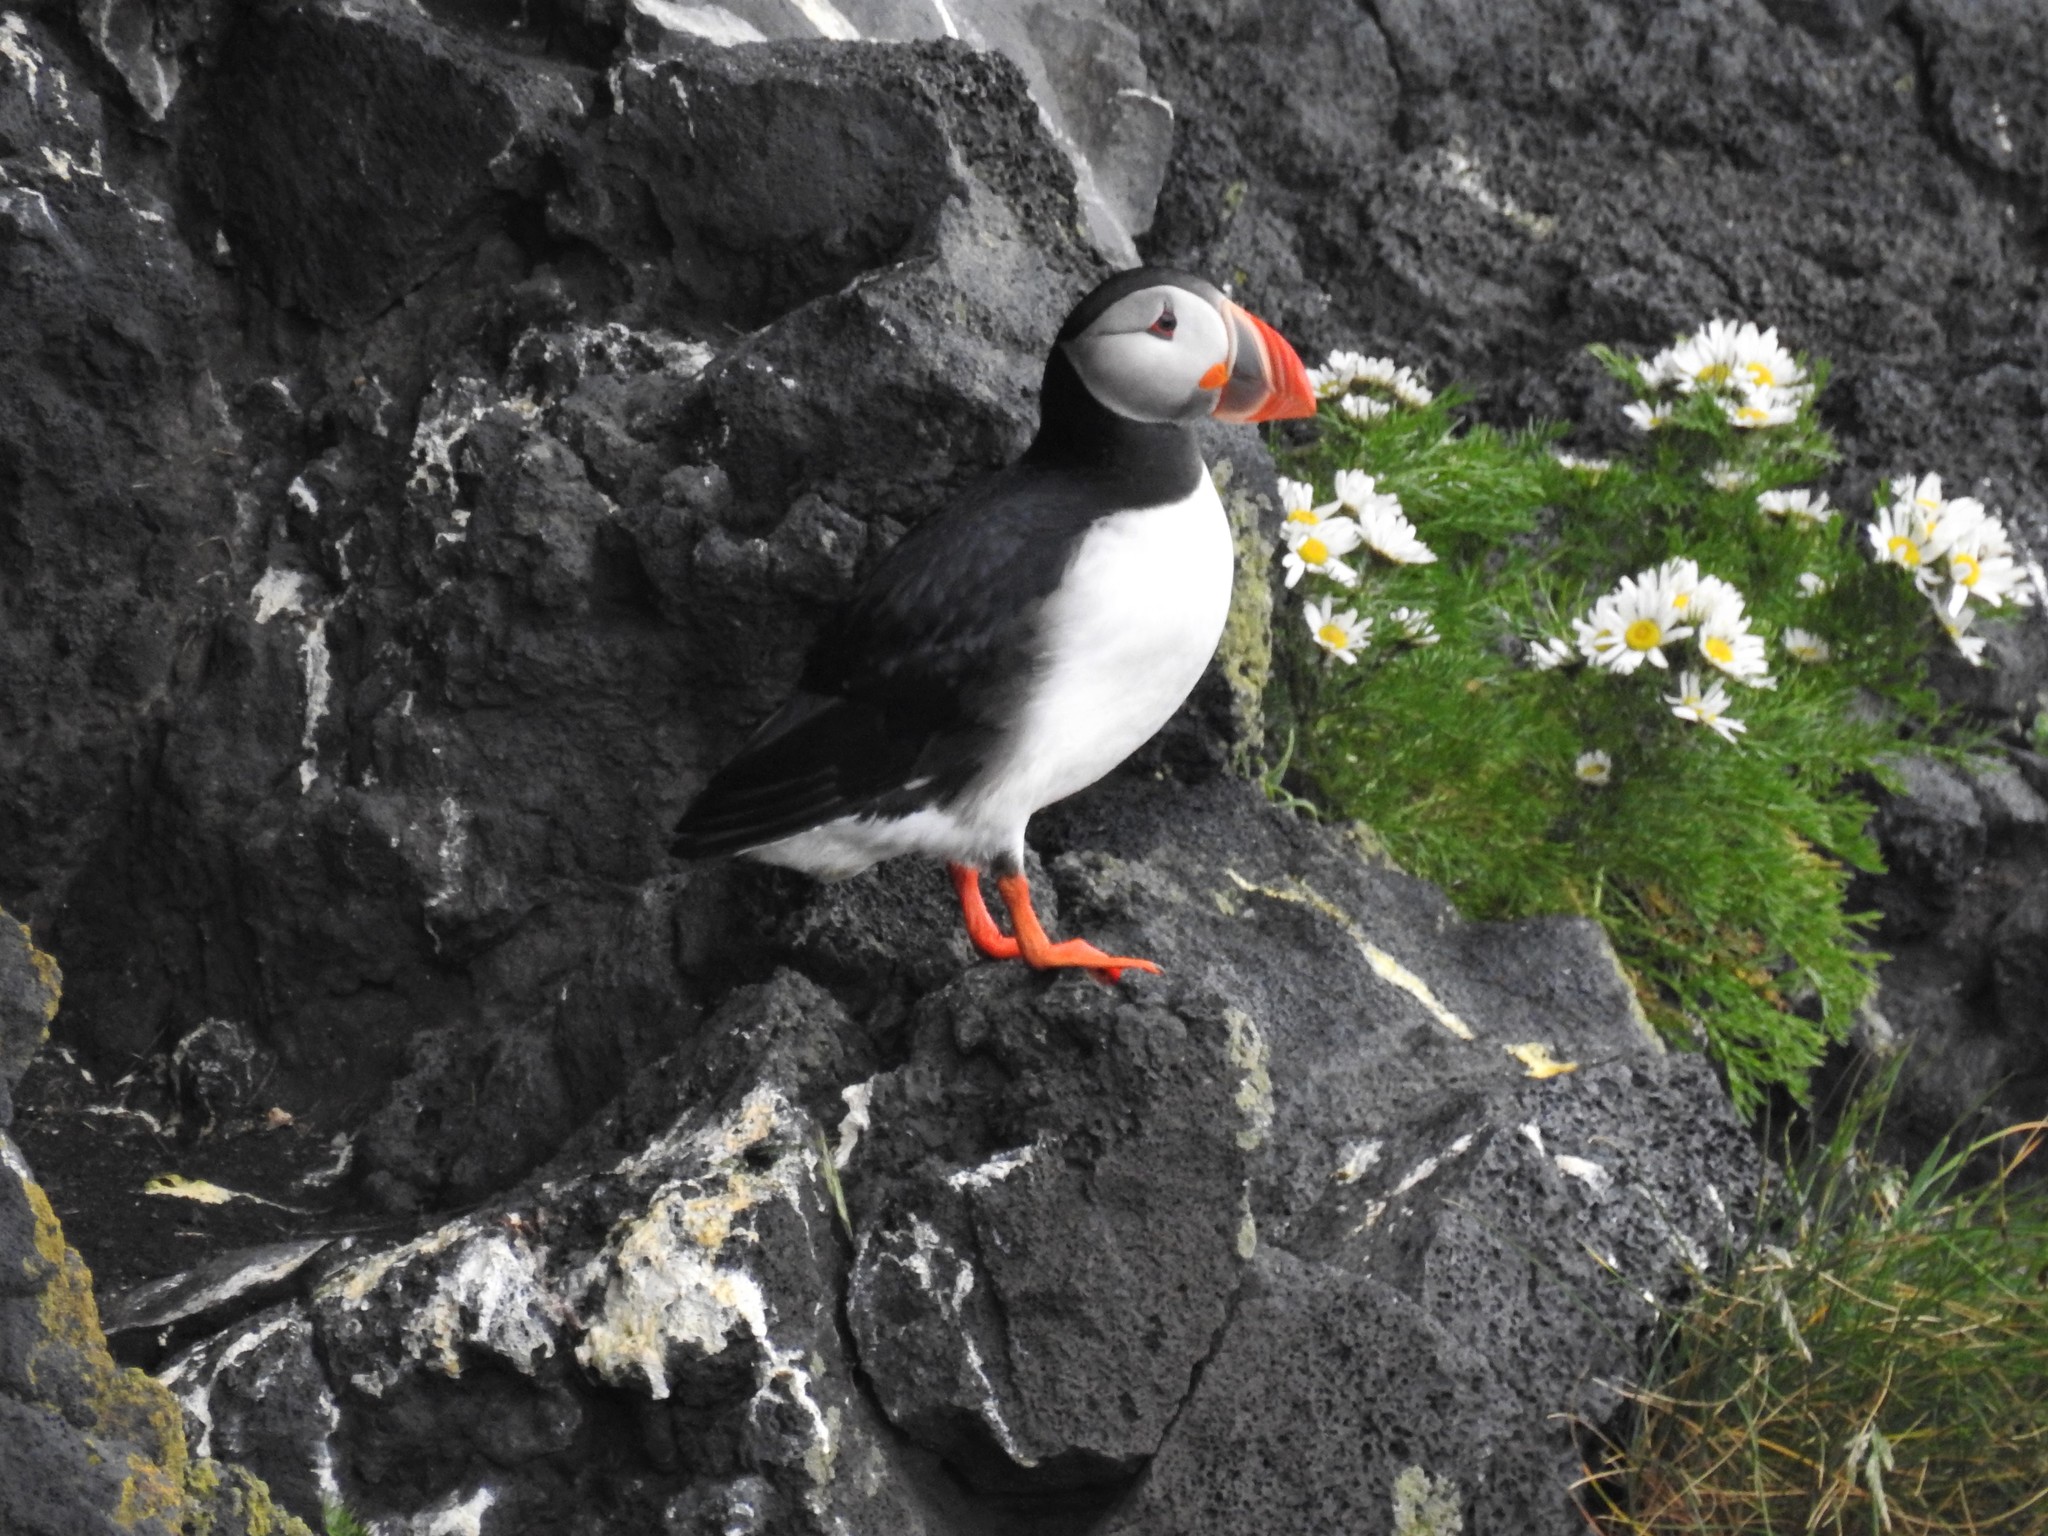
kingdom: Animalia
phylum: Chordata
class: Aves
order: Charadriiformes
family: Alcidae
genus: Fratercula
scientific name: Fratercula arctica
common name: Atlantic puffin
